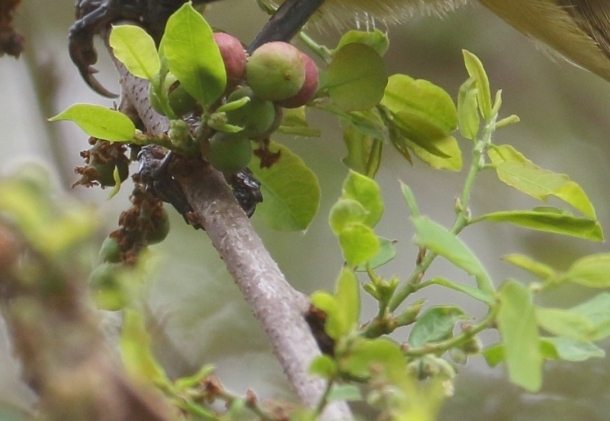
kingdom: Plantae
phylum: Tracheophyta
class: Magnoliopsida
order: Malpighiales
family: Phyllanthaceae
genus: Phyllanthus
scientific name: Phyllanthus reticulatus
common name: Potato bush
